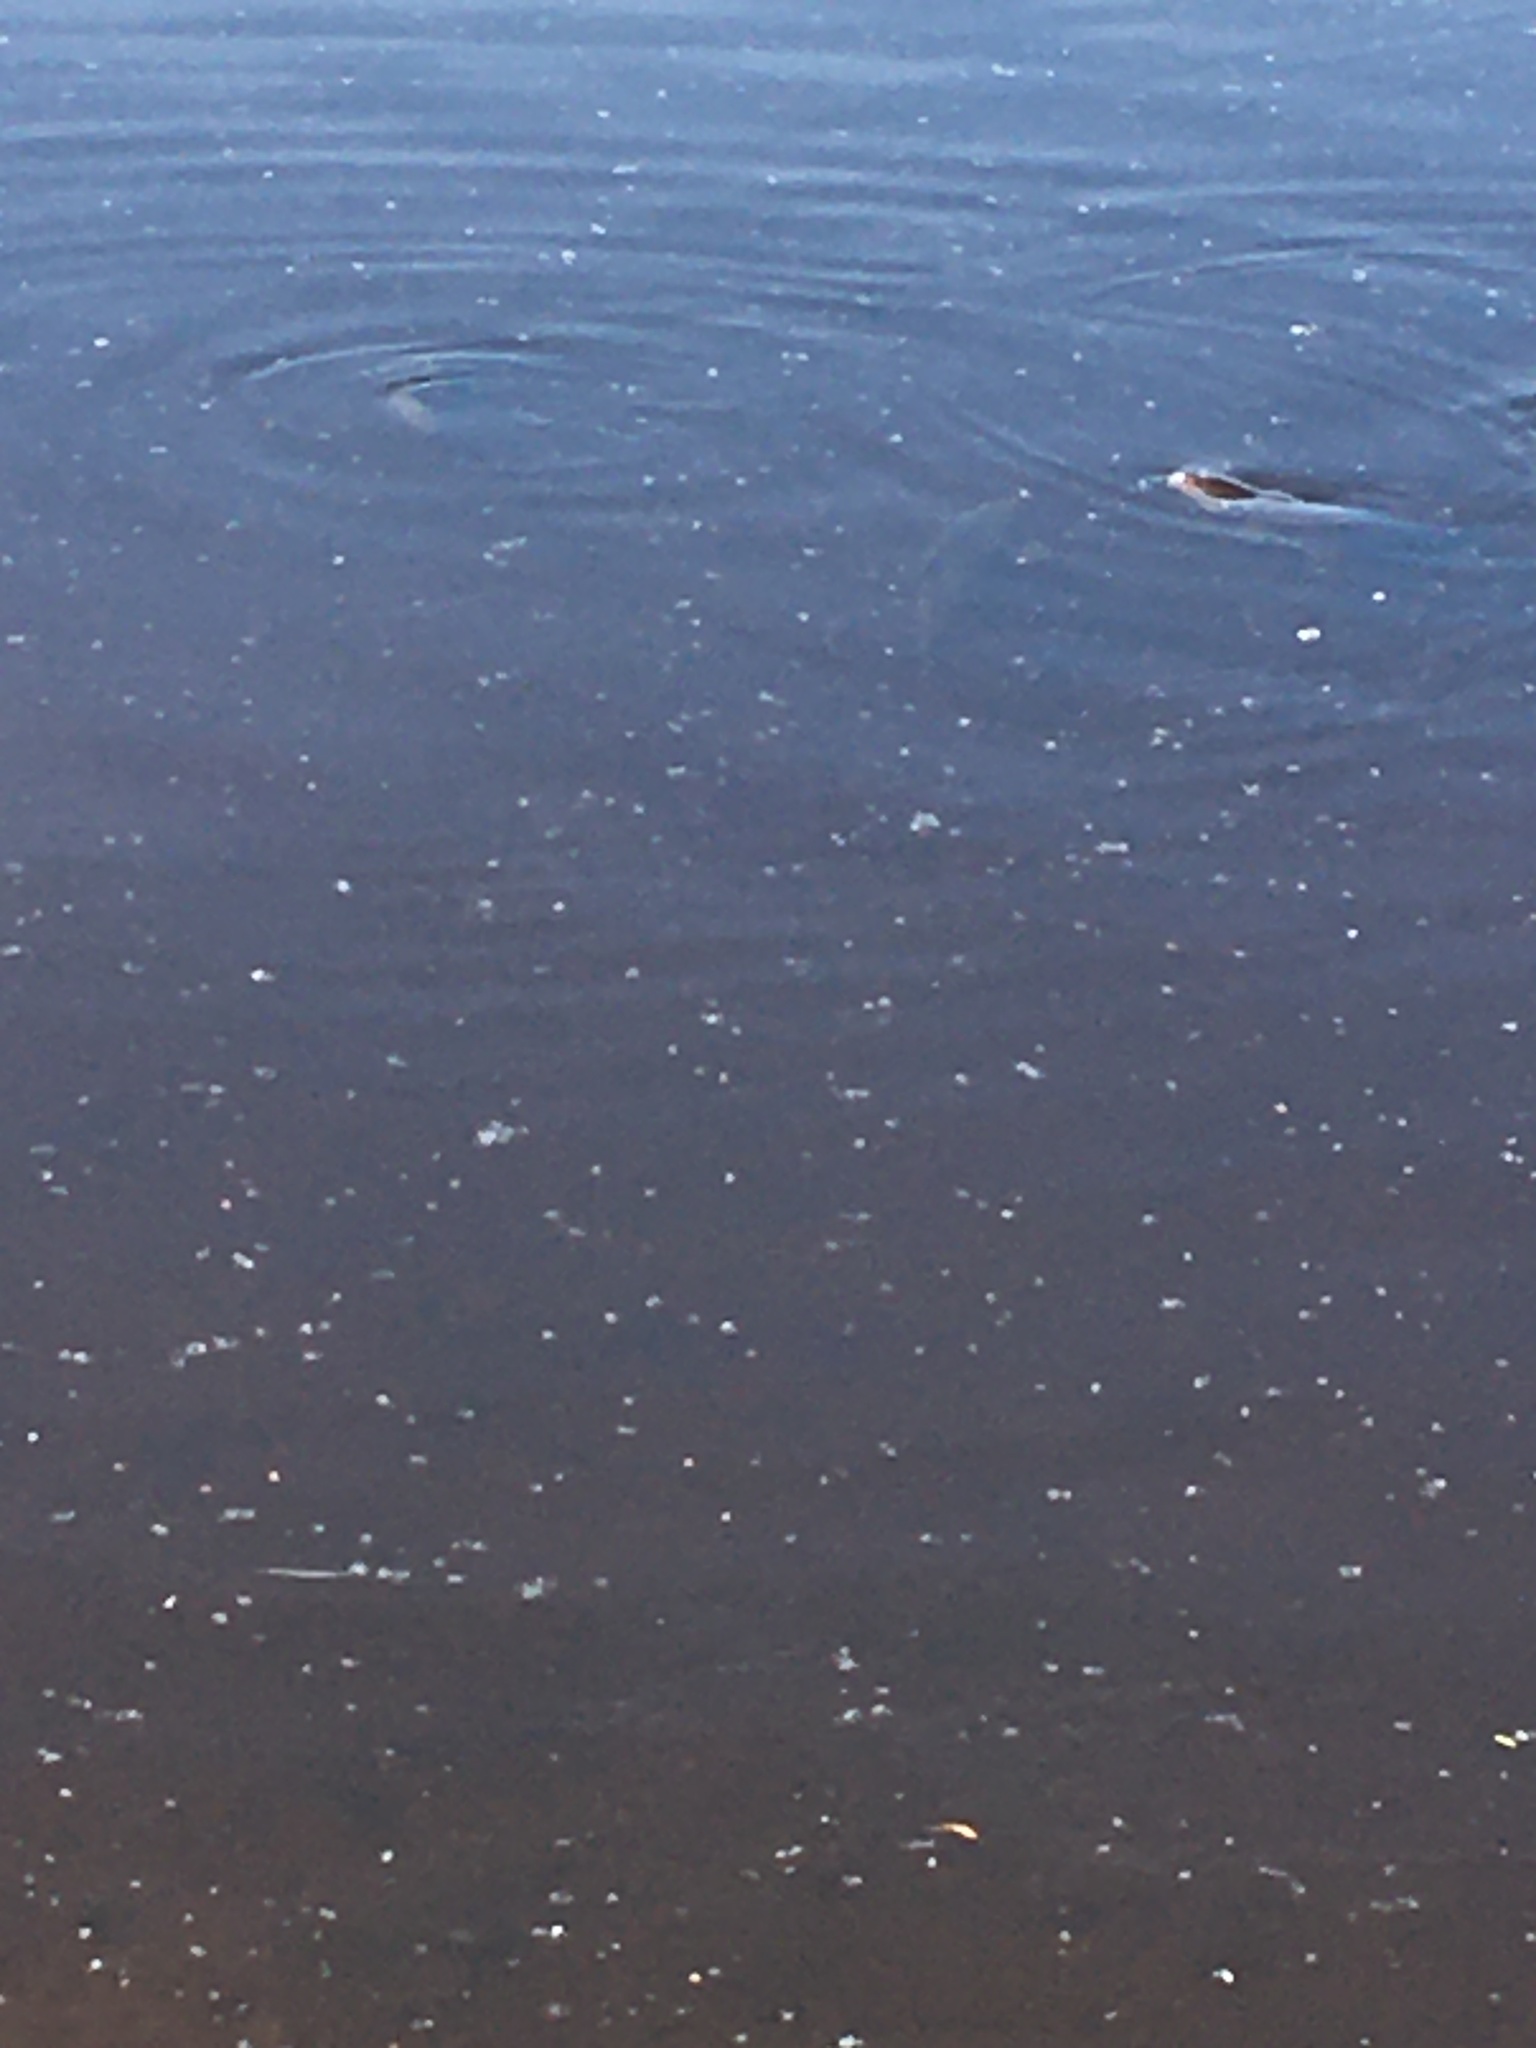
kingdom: Animalia
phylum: Chordata
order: Cypriniformes
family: Cyprinidae
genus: Cyprinus
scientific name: Cyprinus carpio
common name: Common carp
